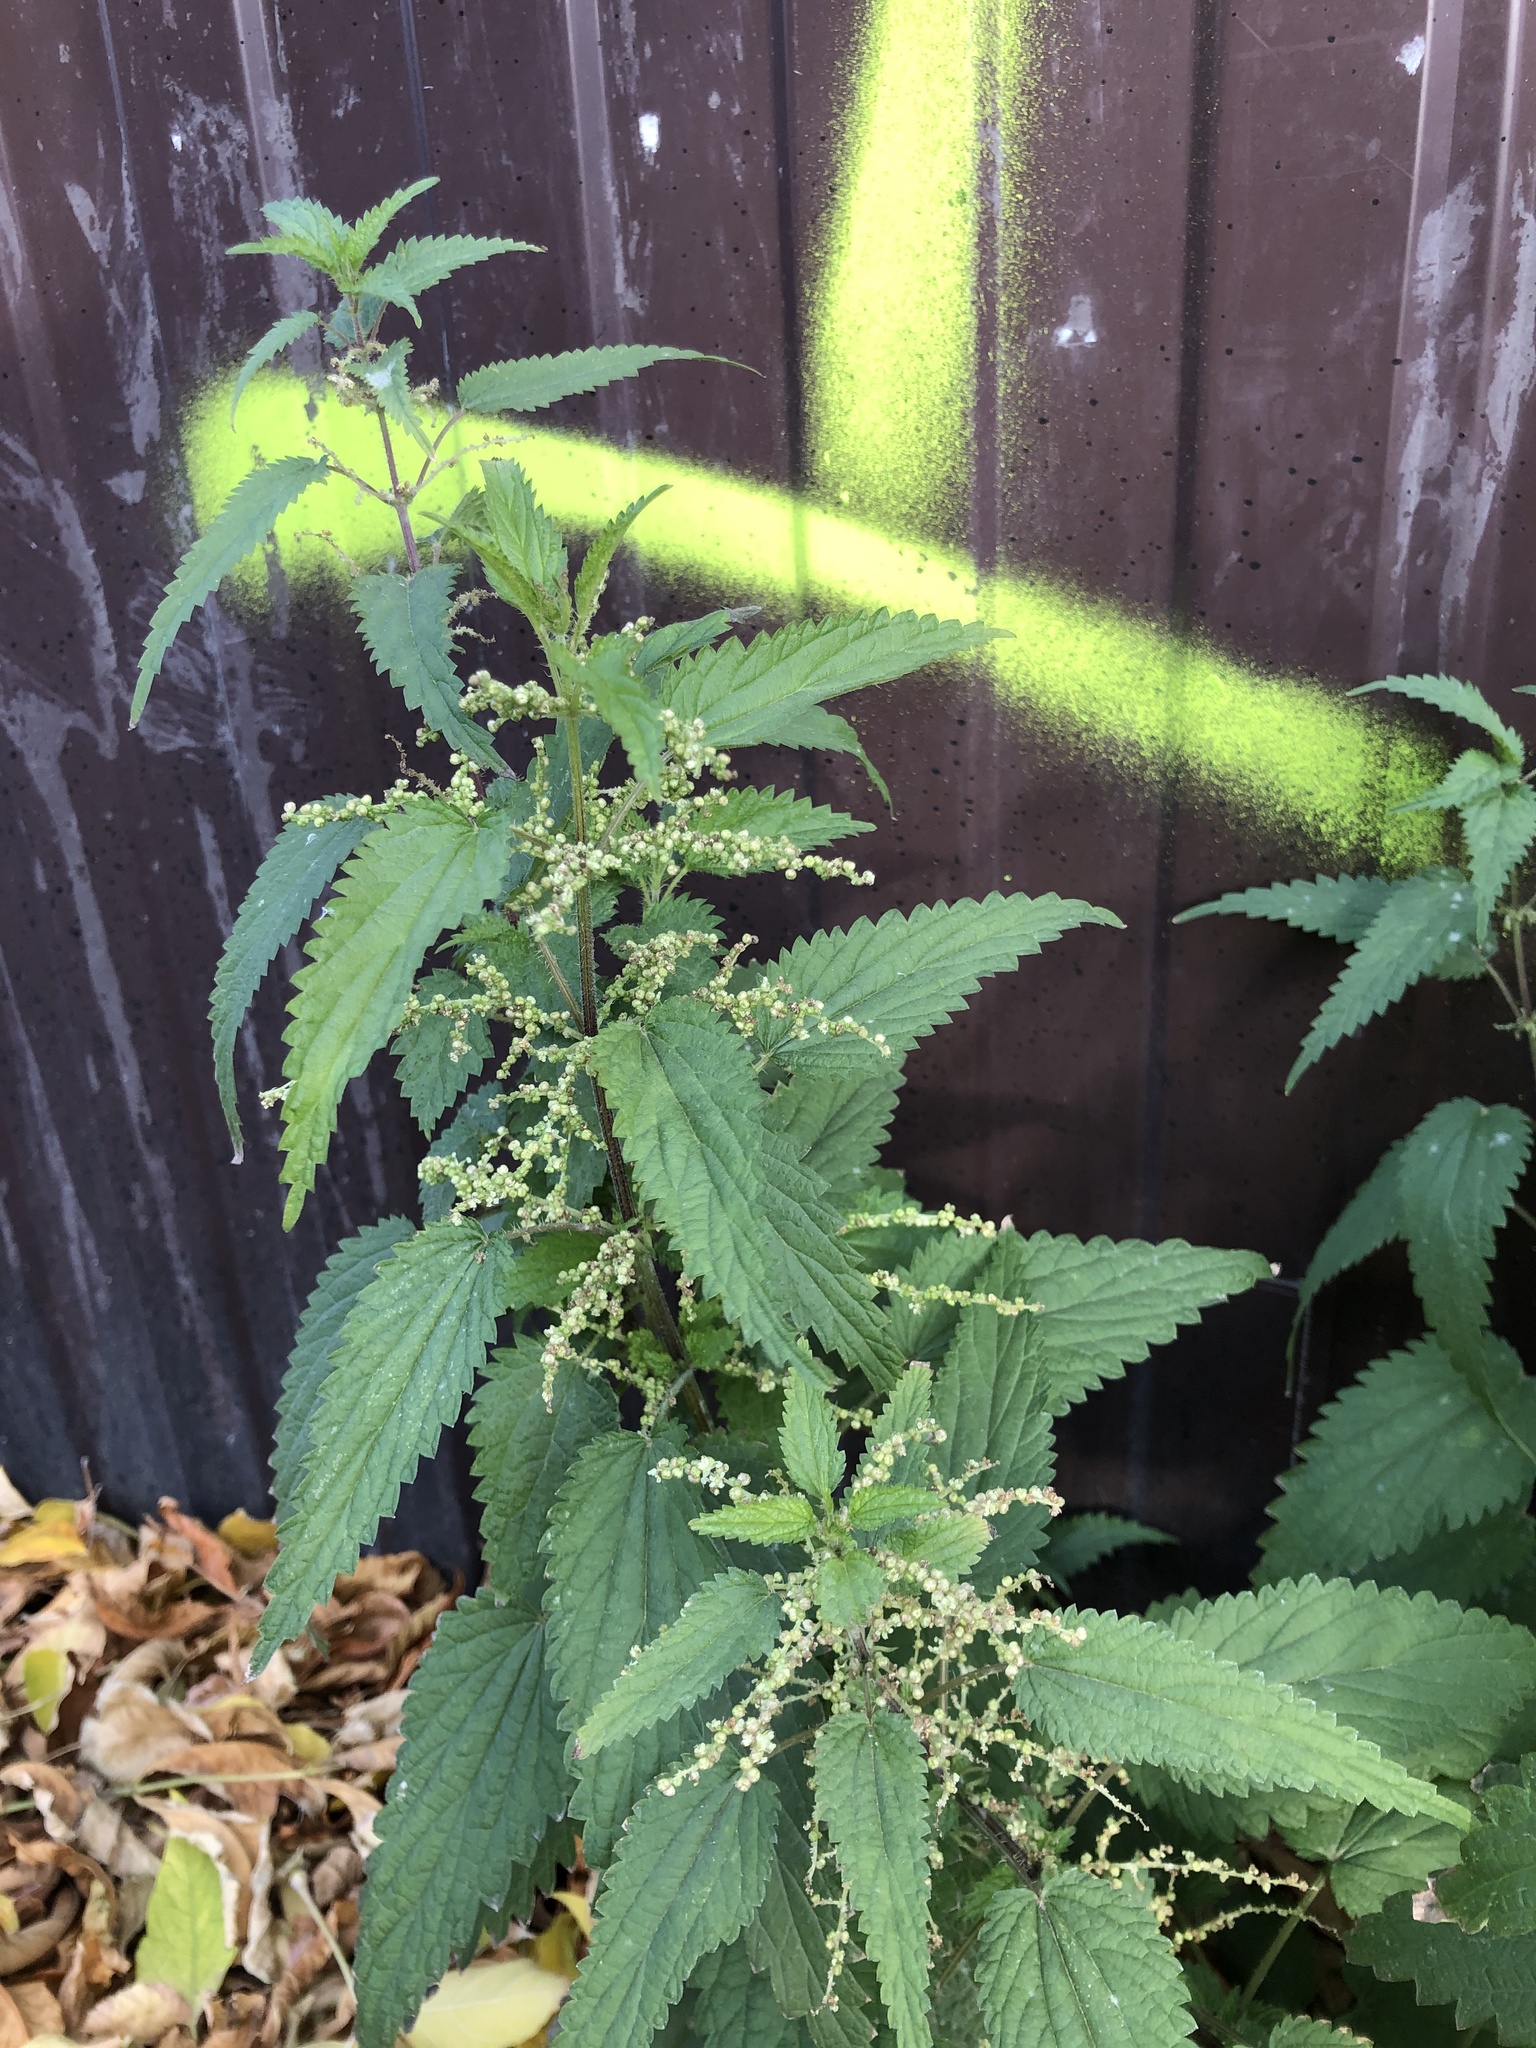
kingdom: Plantae
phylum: Tracheophyta
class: Magnoliopsida
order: Rosales
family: Urticaceae
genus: Urtica
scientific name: Urtica dioica
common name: Common nettle
